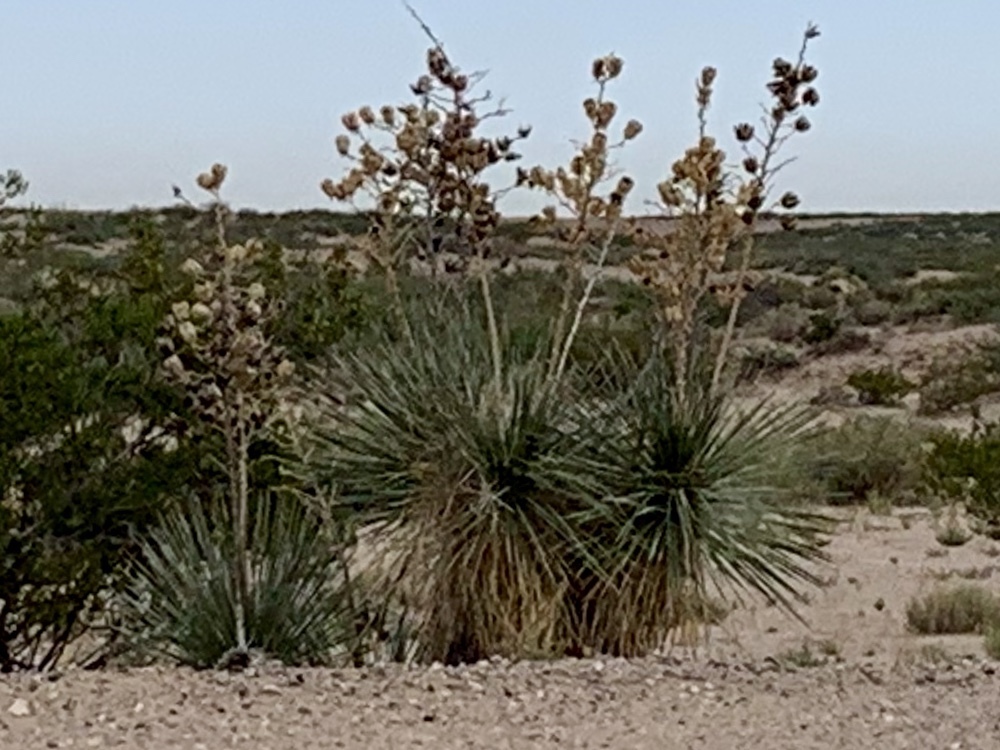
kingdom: Plantae
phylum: Tracheophyta
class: Liliopsida
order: Asparagales
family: Asparagaceae
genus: Yucca
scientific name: Yucca elata
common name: Palmella
